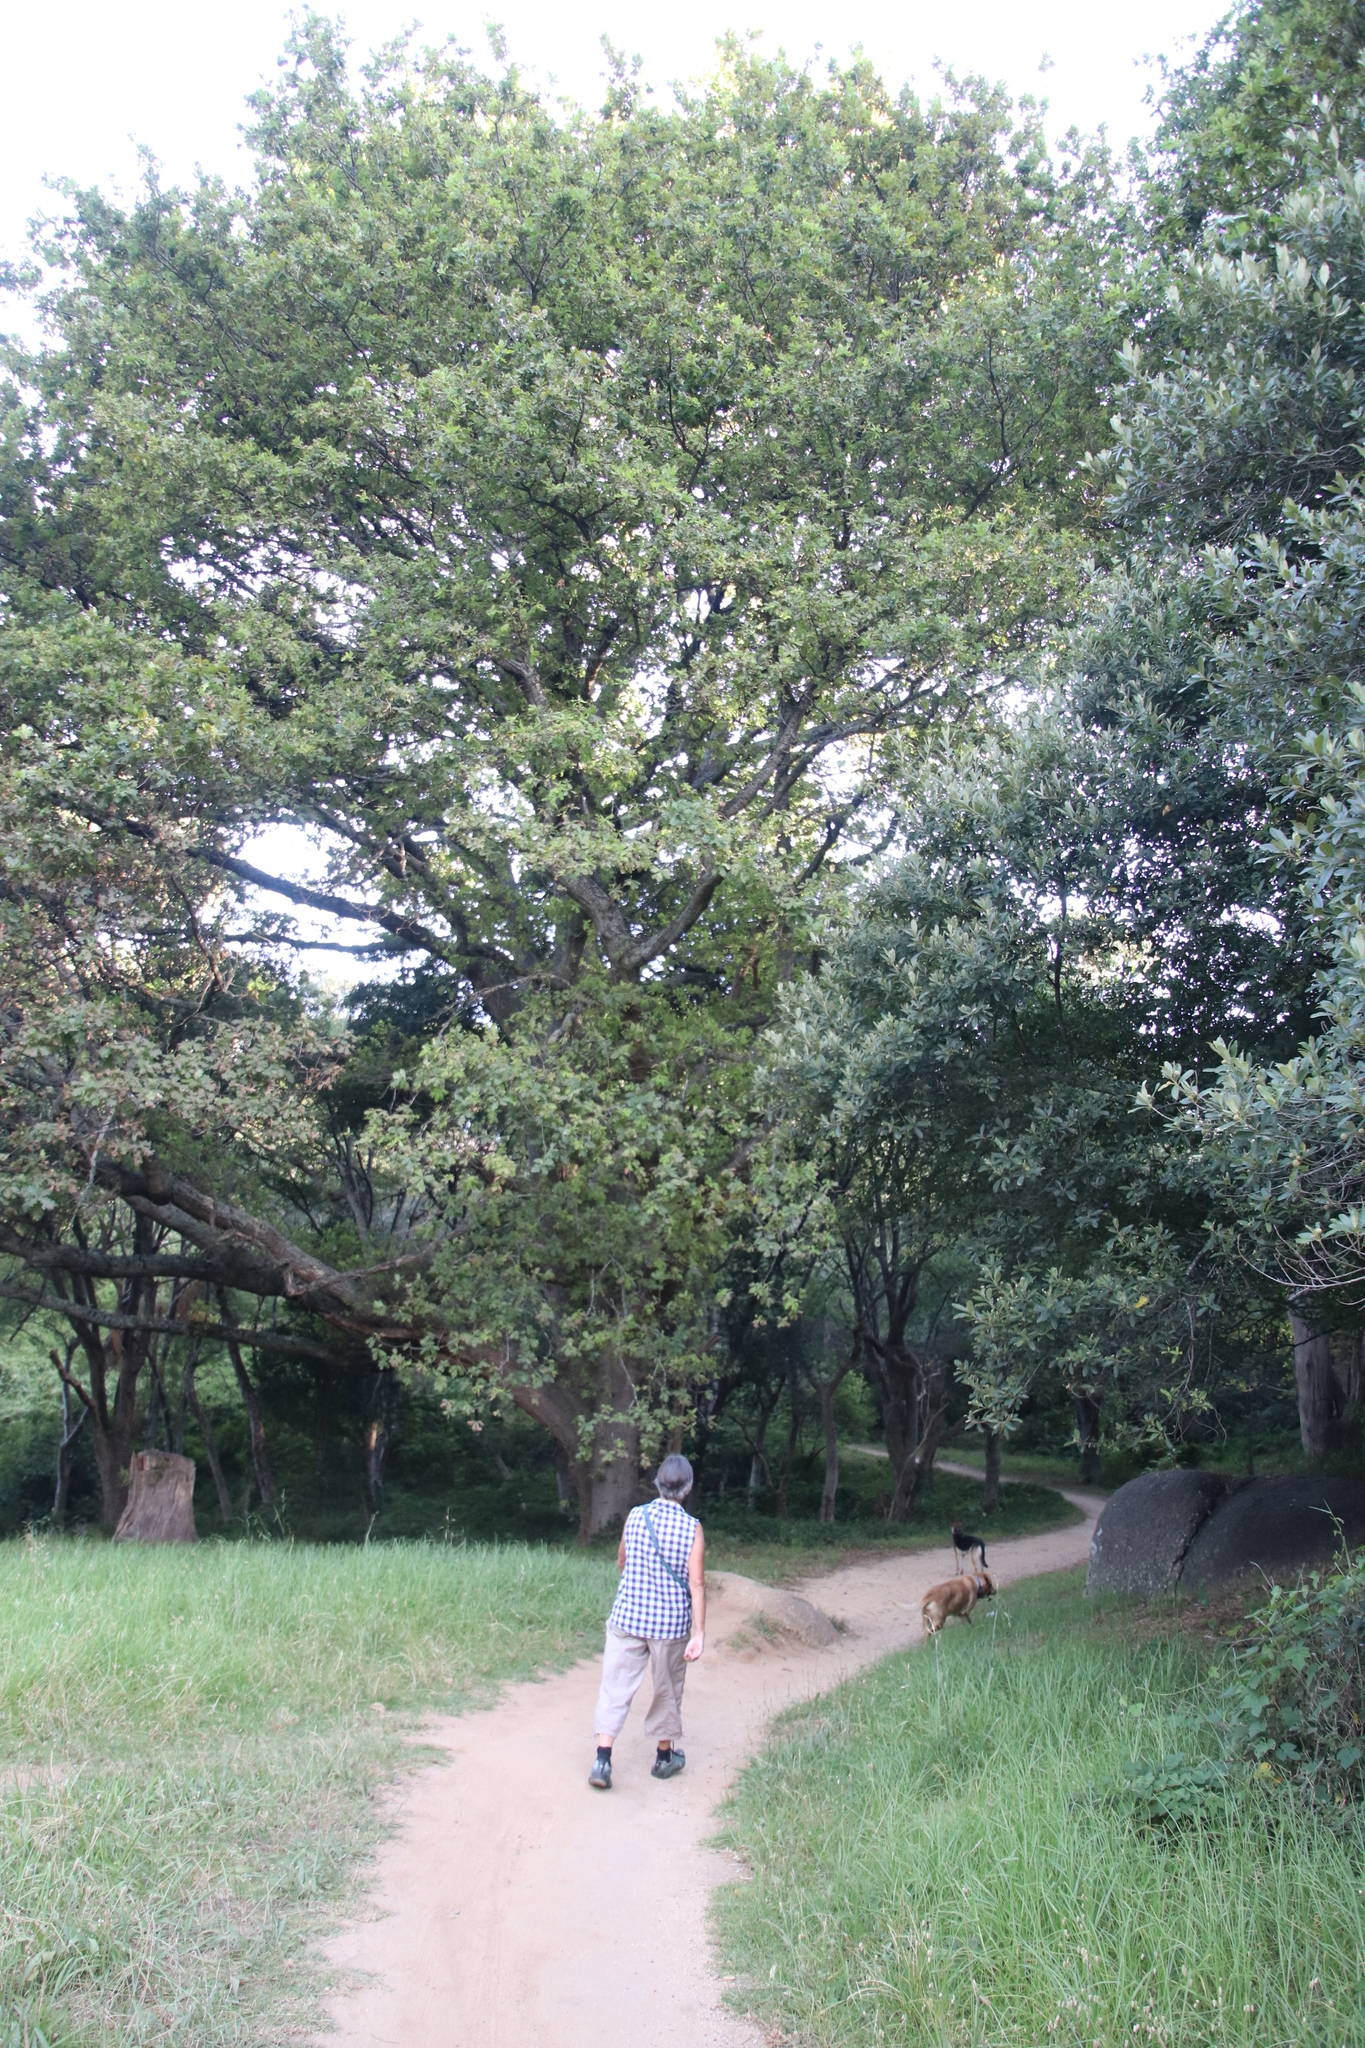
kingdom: Plantae
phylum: Tracheophyta
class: Magnoliopsida
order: Fagales
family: Fagaceae
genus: Quercus
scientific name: Quercus robur
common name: Pedunculate oak
